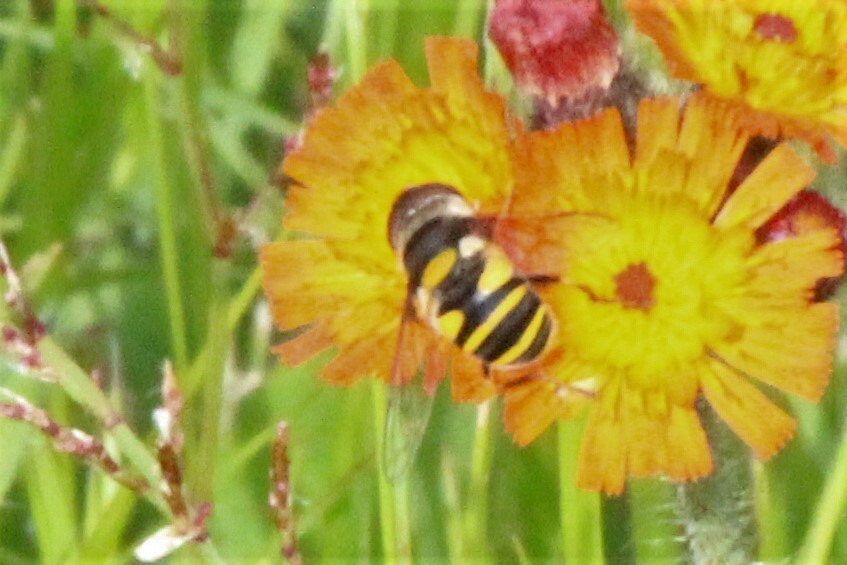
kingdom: Animalia
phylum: Arthropoda
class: Insecta
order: Diptera
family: Syrphidae
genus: Eristalis
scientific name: Eristalis transversa
